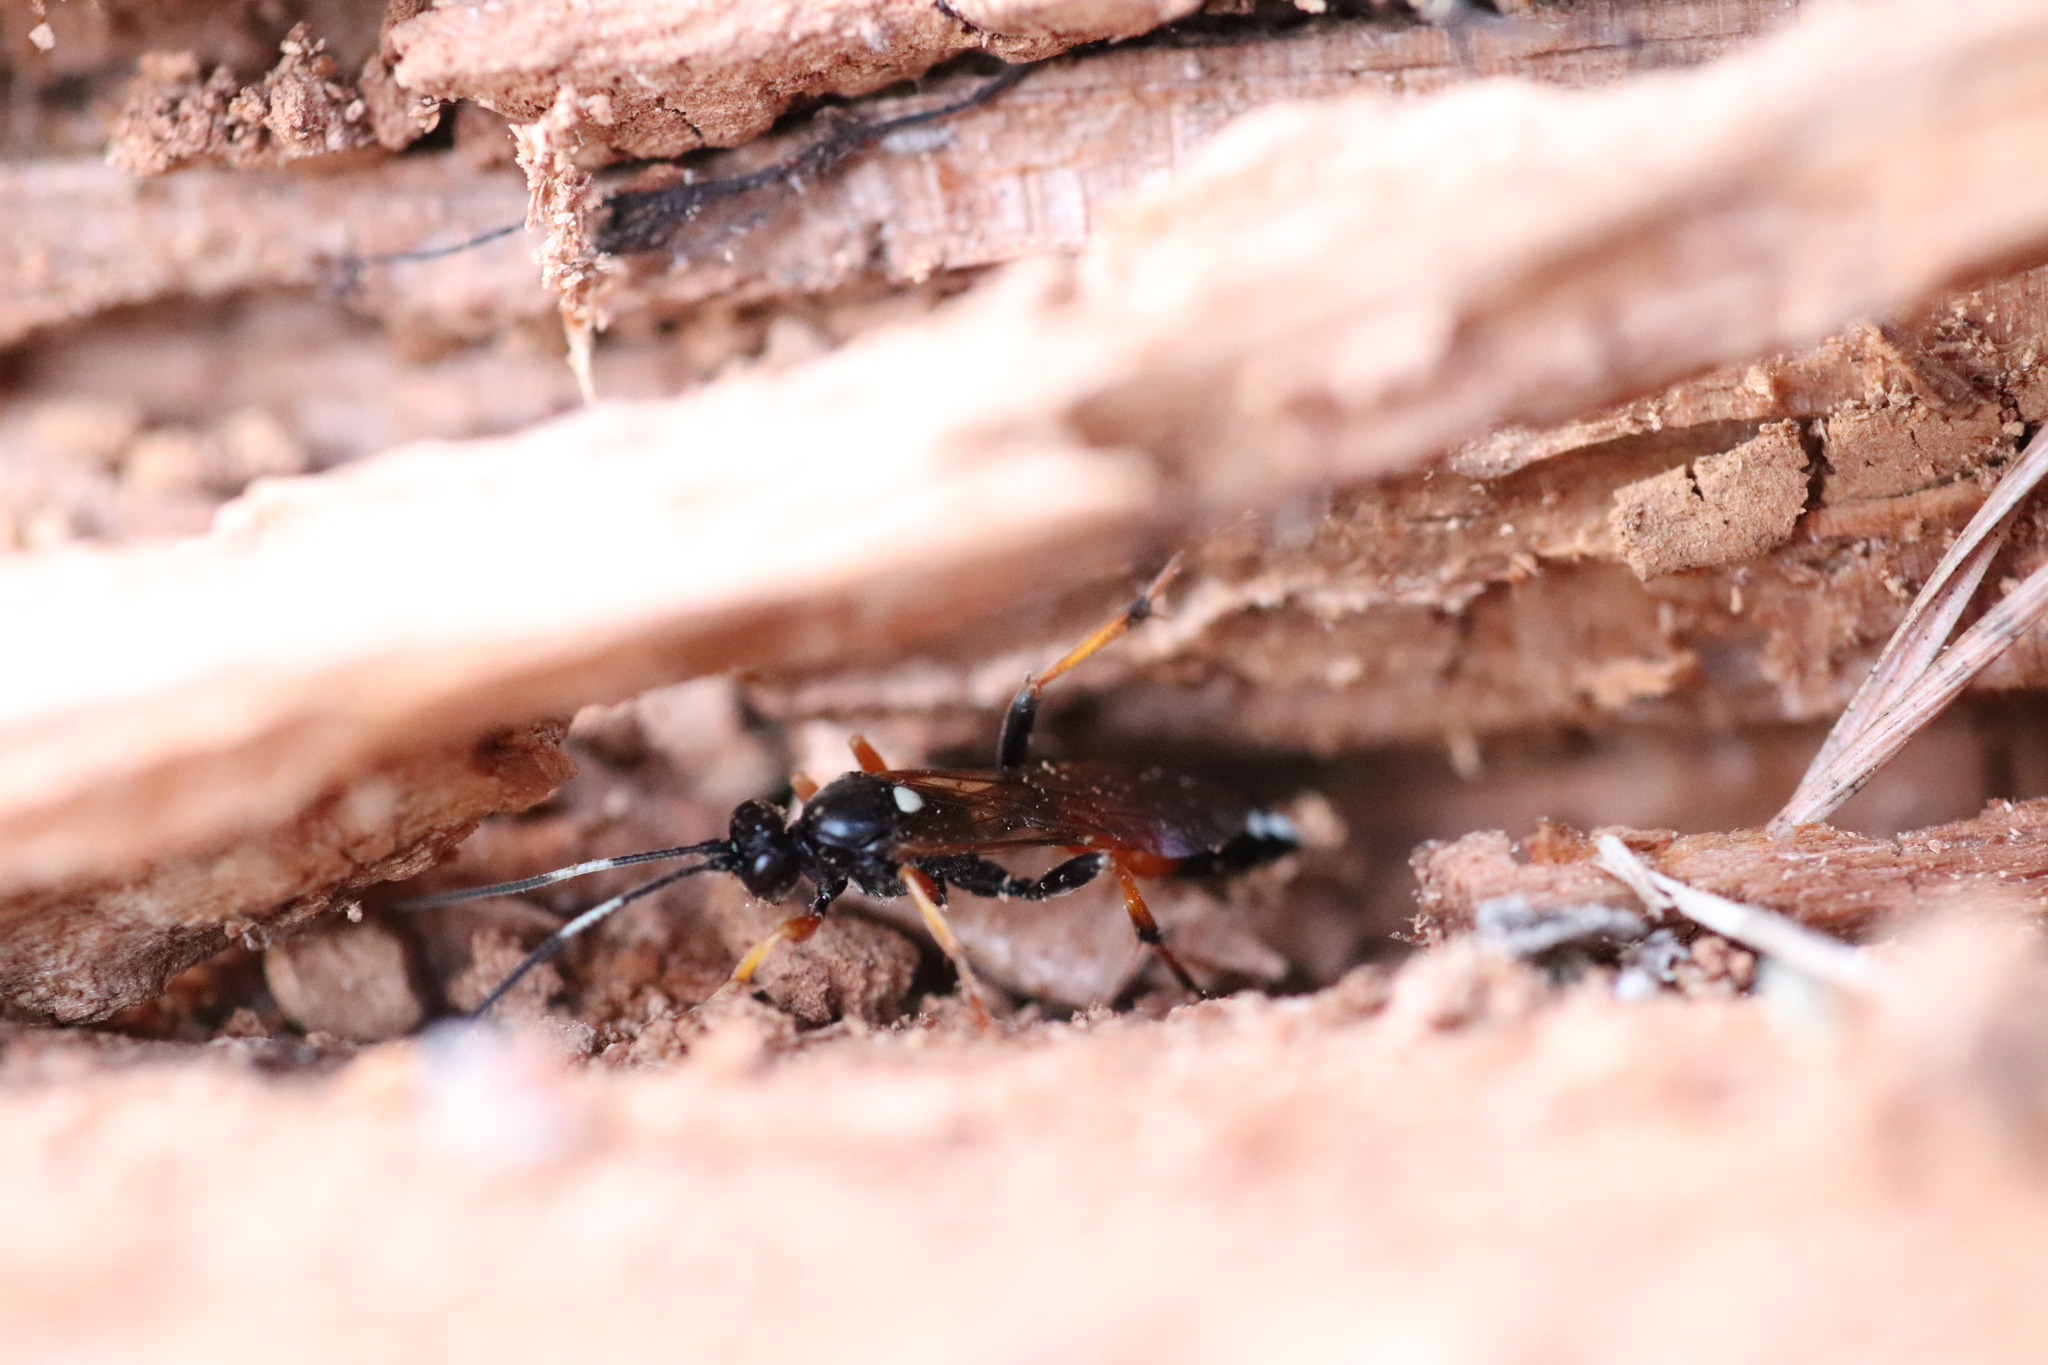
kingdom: Animalia
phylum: Arthropoda
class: Insecta
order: Hymenoptera
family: Ichneumonidae
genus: Diphyus
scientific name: Diphyus raptorius
